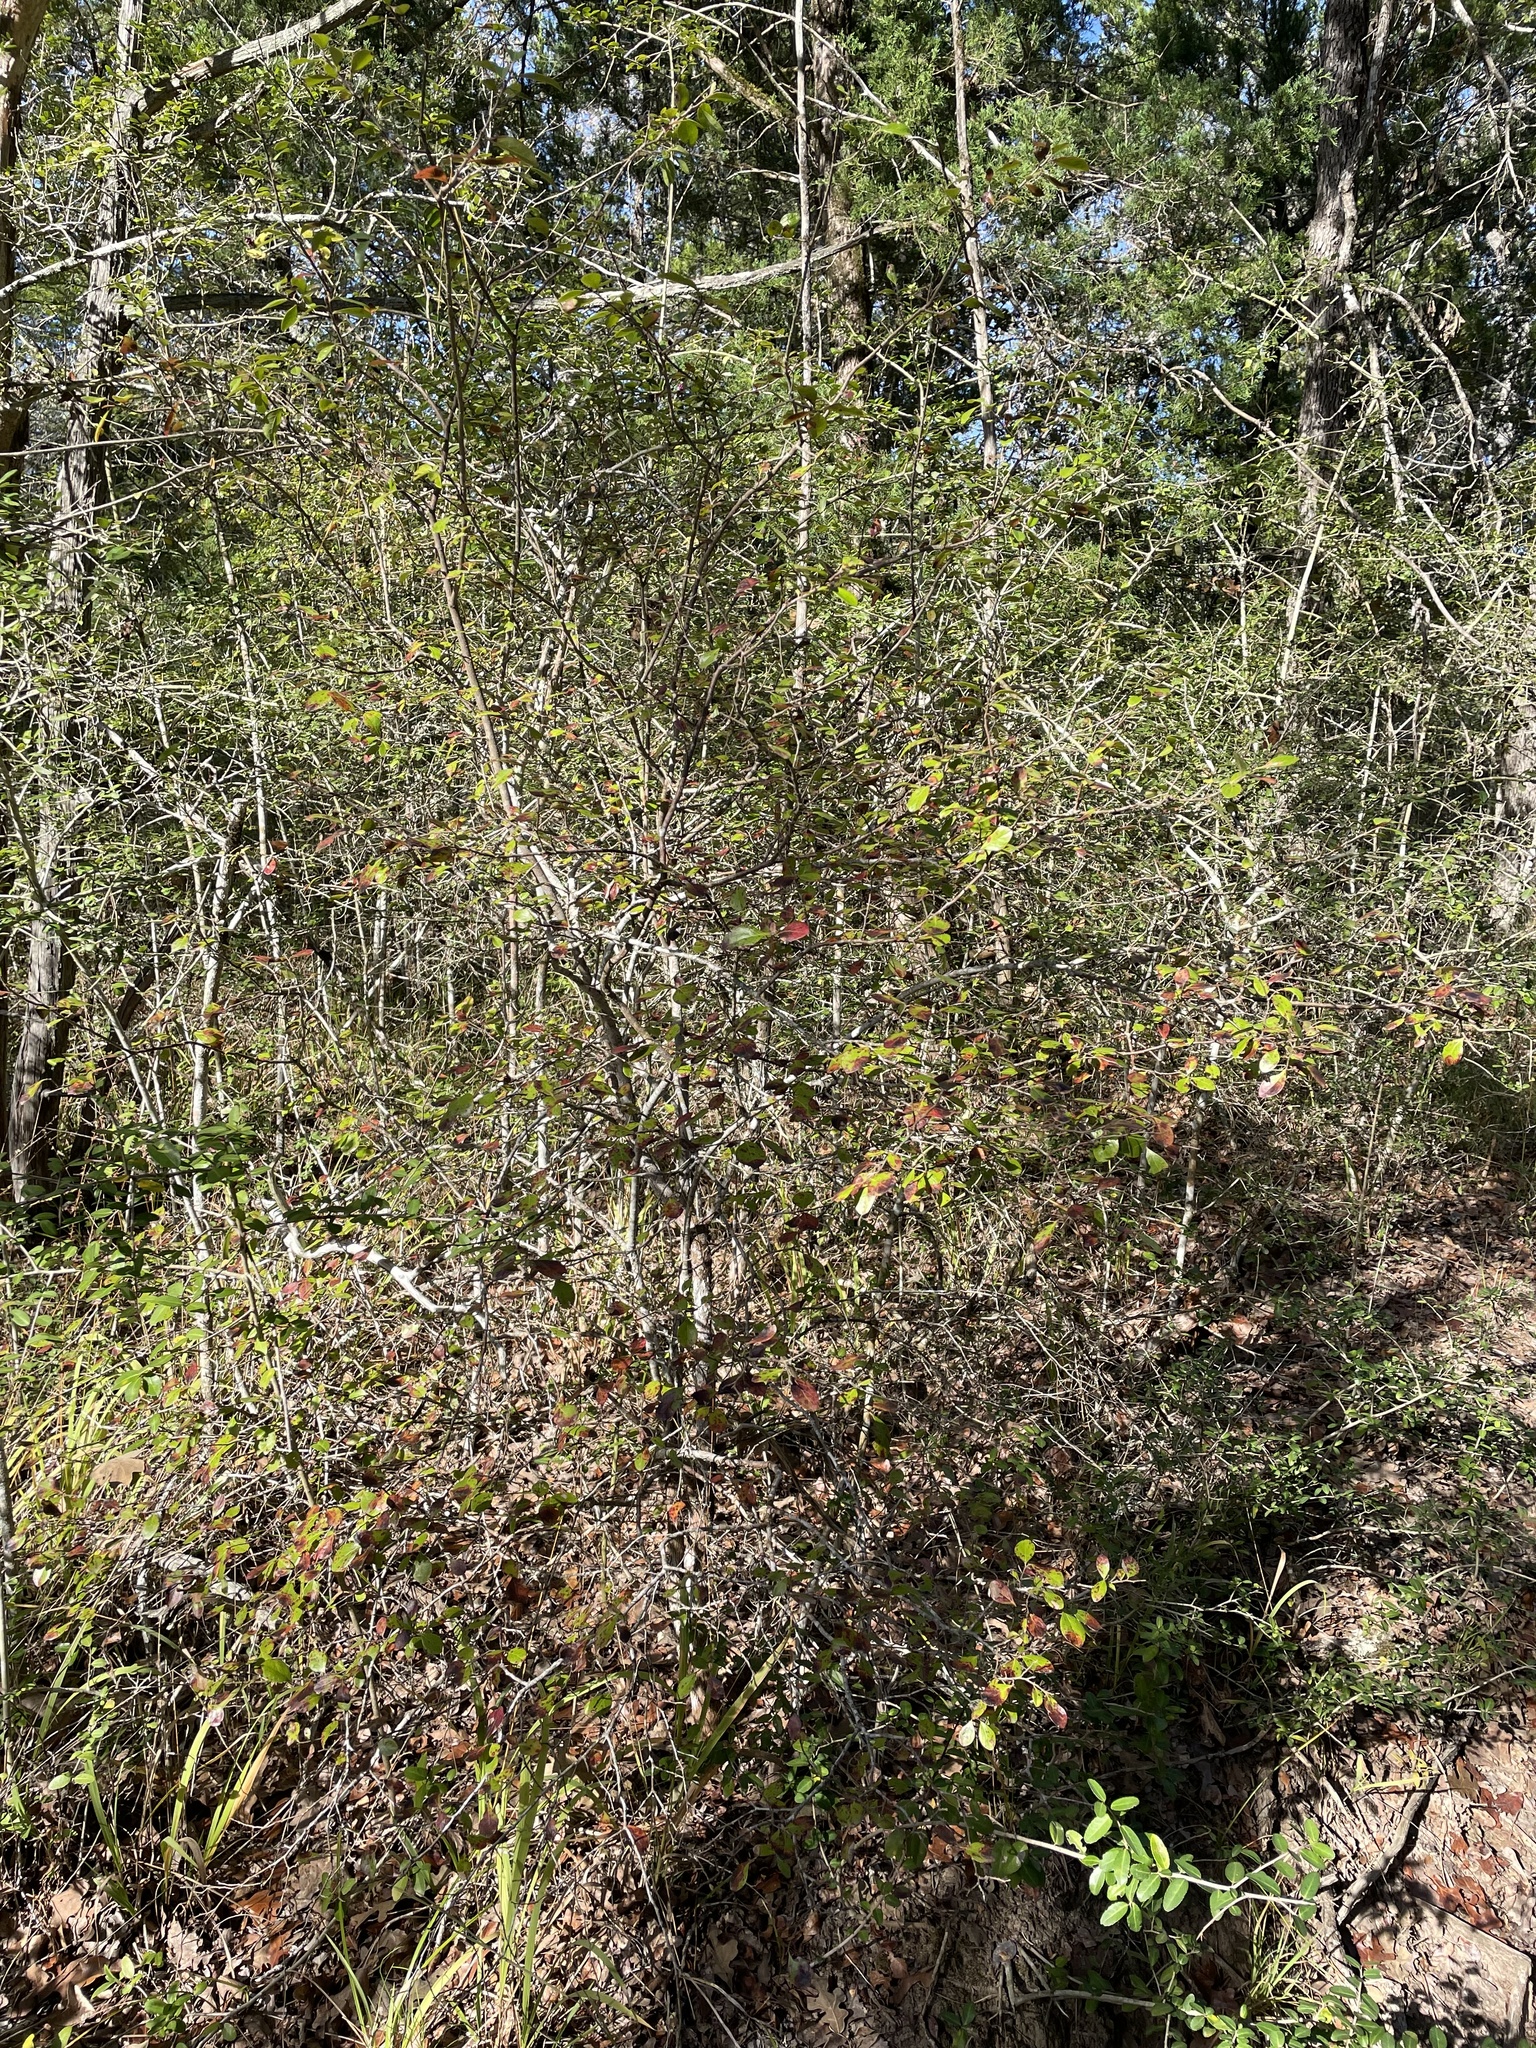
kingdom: Plantae
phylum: Tracheophyta
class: Magnoliopsida
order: Ericales
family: Ericaceae
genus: Vaccinium
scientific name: Vaccinium arboreum
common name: Farkleberry
